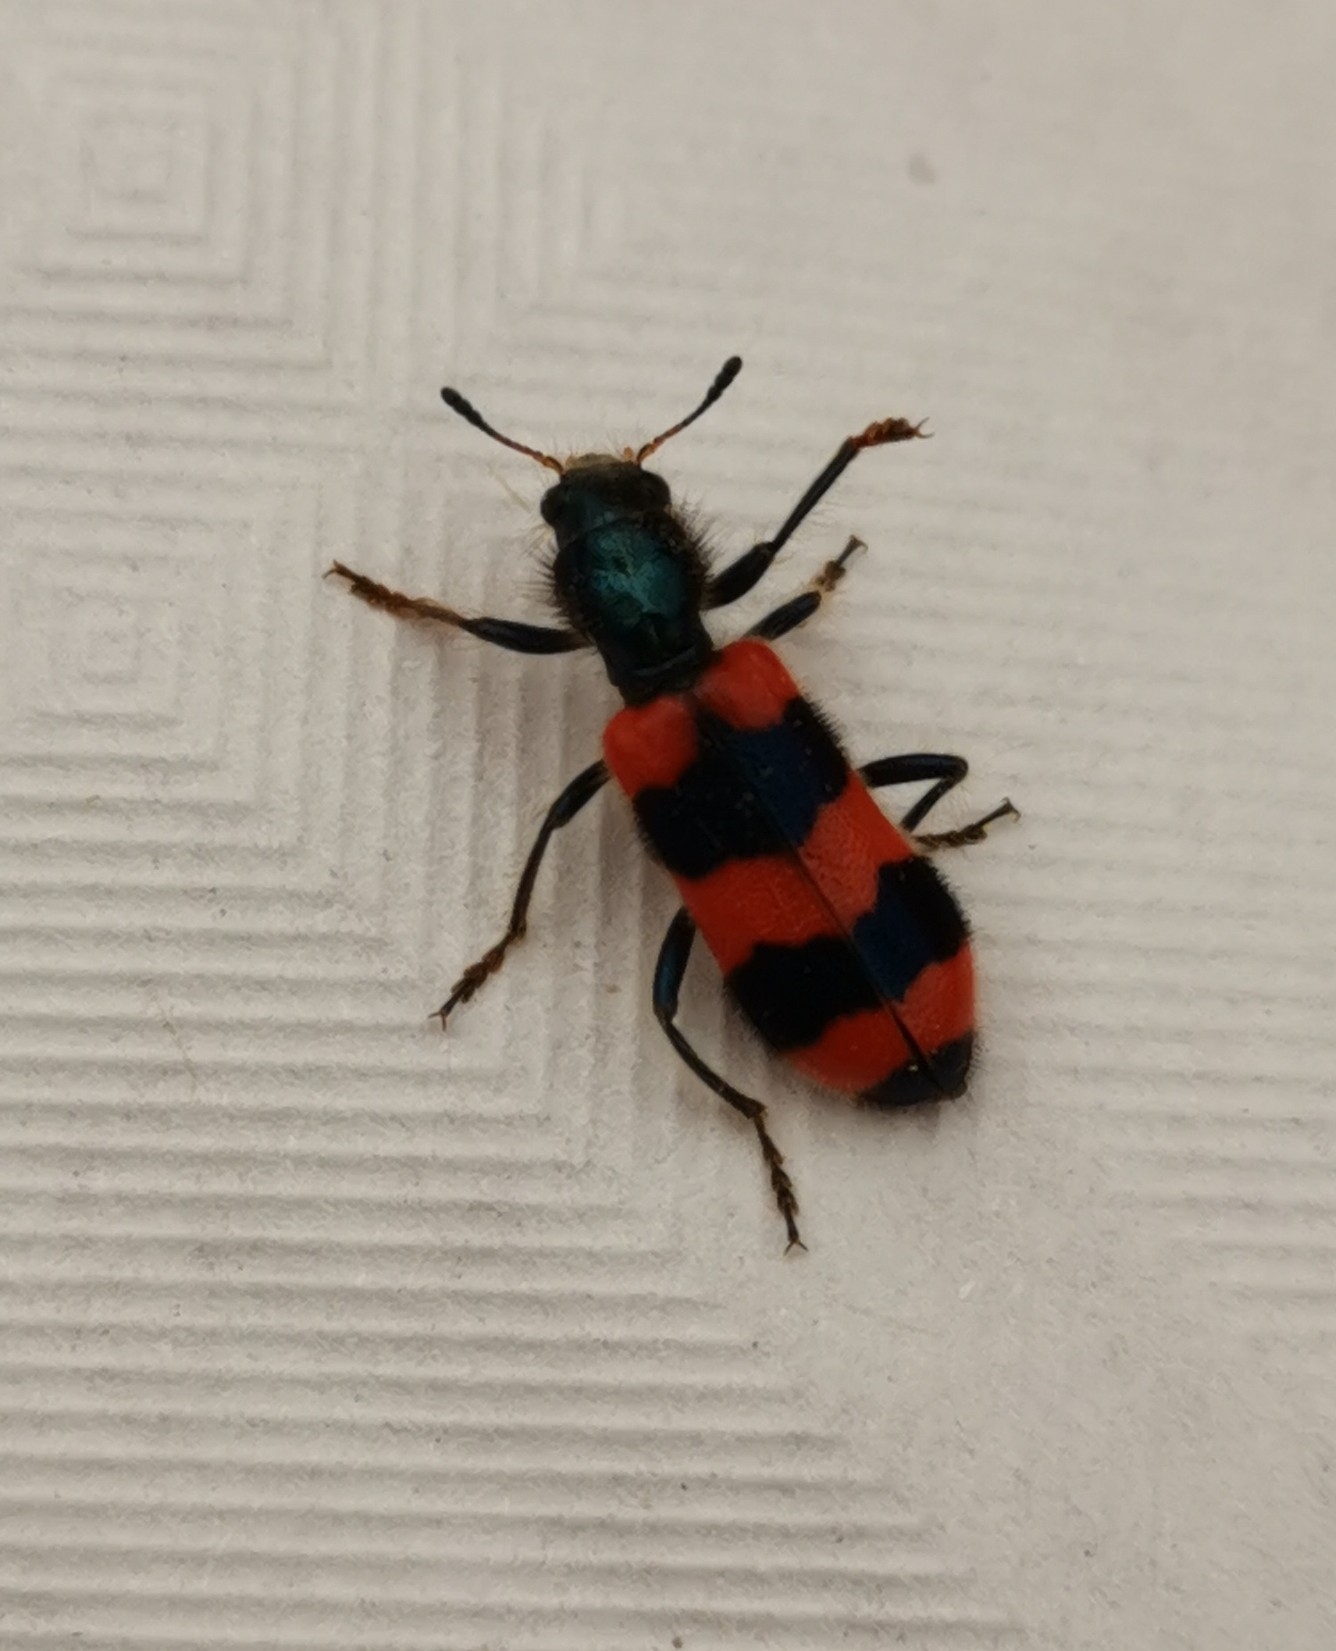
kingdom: Animalia
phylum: Arthropoda
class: Insecta
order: Coleoptera
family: Cleridae
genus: Trichodes
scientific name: Trichodes apiarius
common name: Bee-eating beetle
